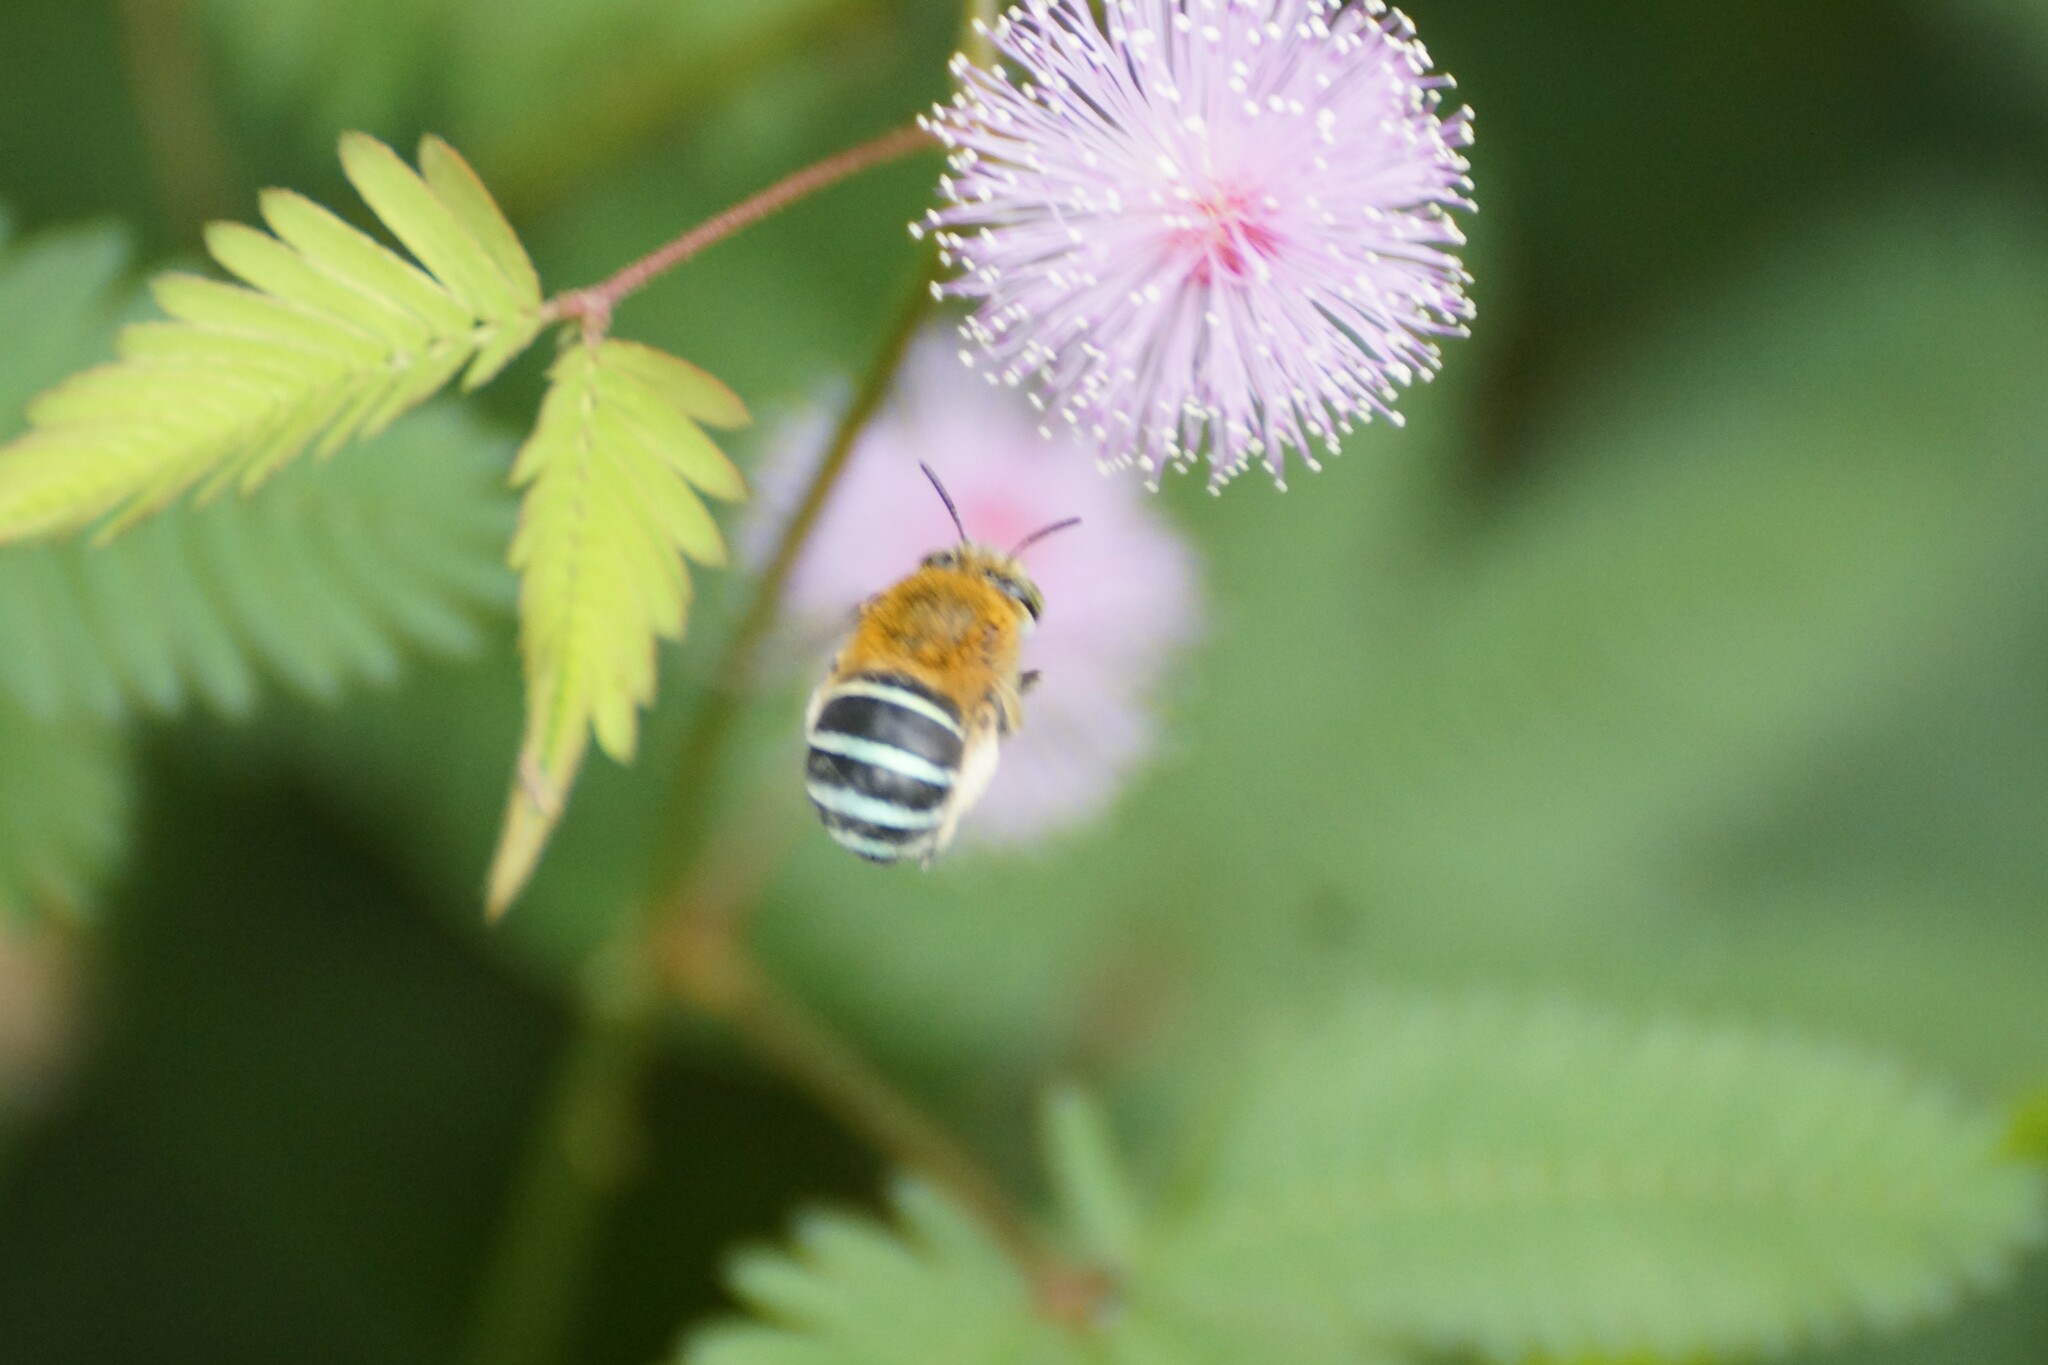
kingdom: Animalia
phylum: Arthropoda
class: Insecta
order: Hymenoptera
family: Apidae
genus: Amegilla
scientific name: Amegilla cingulata
